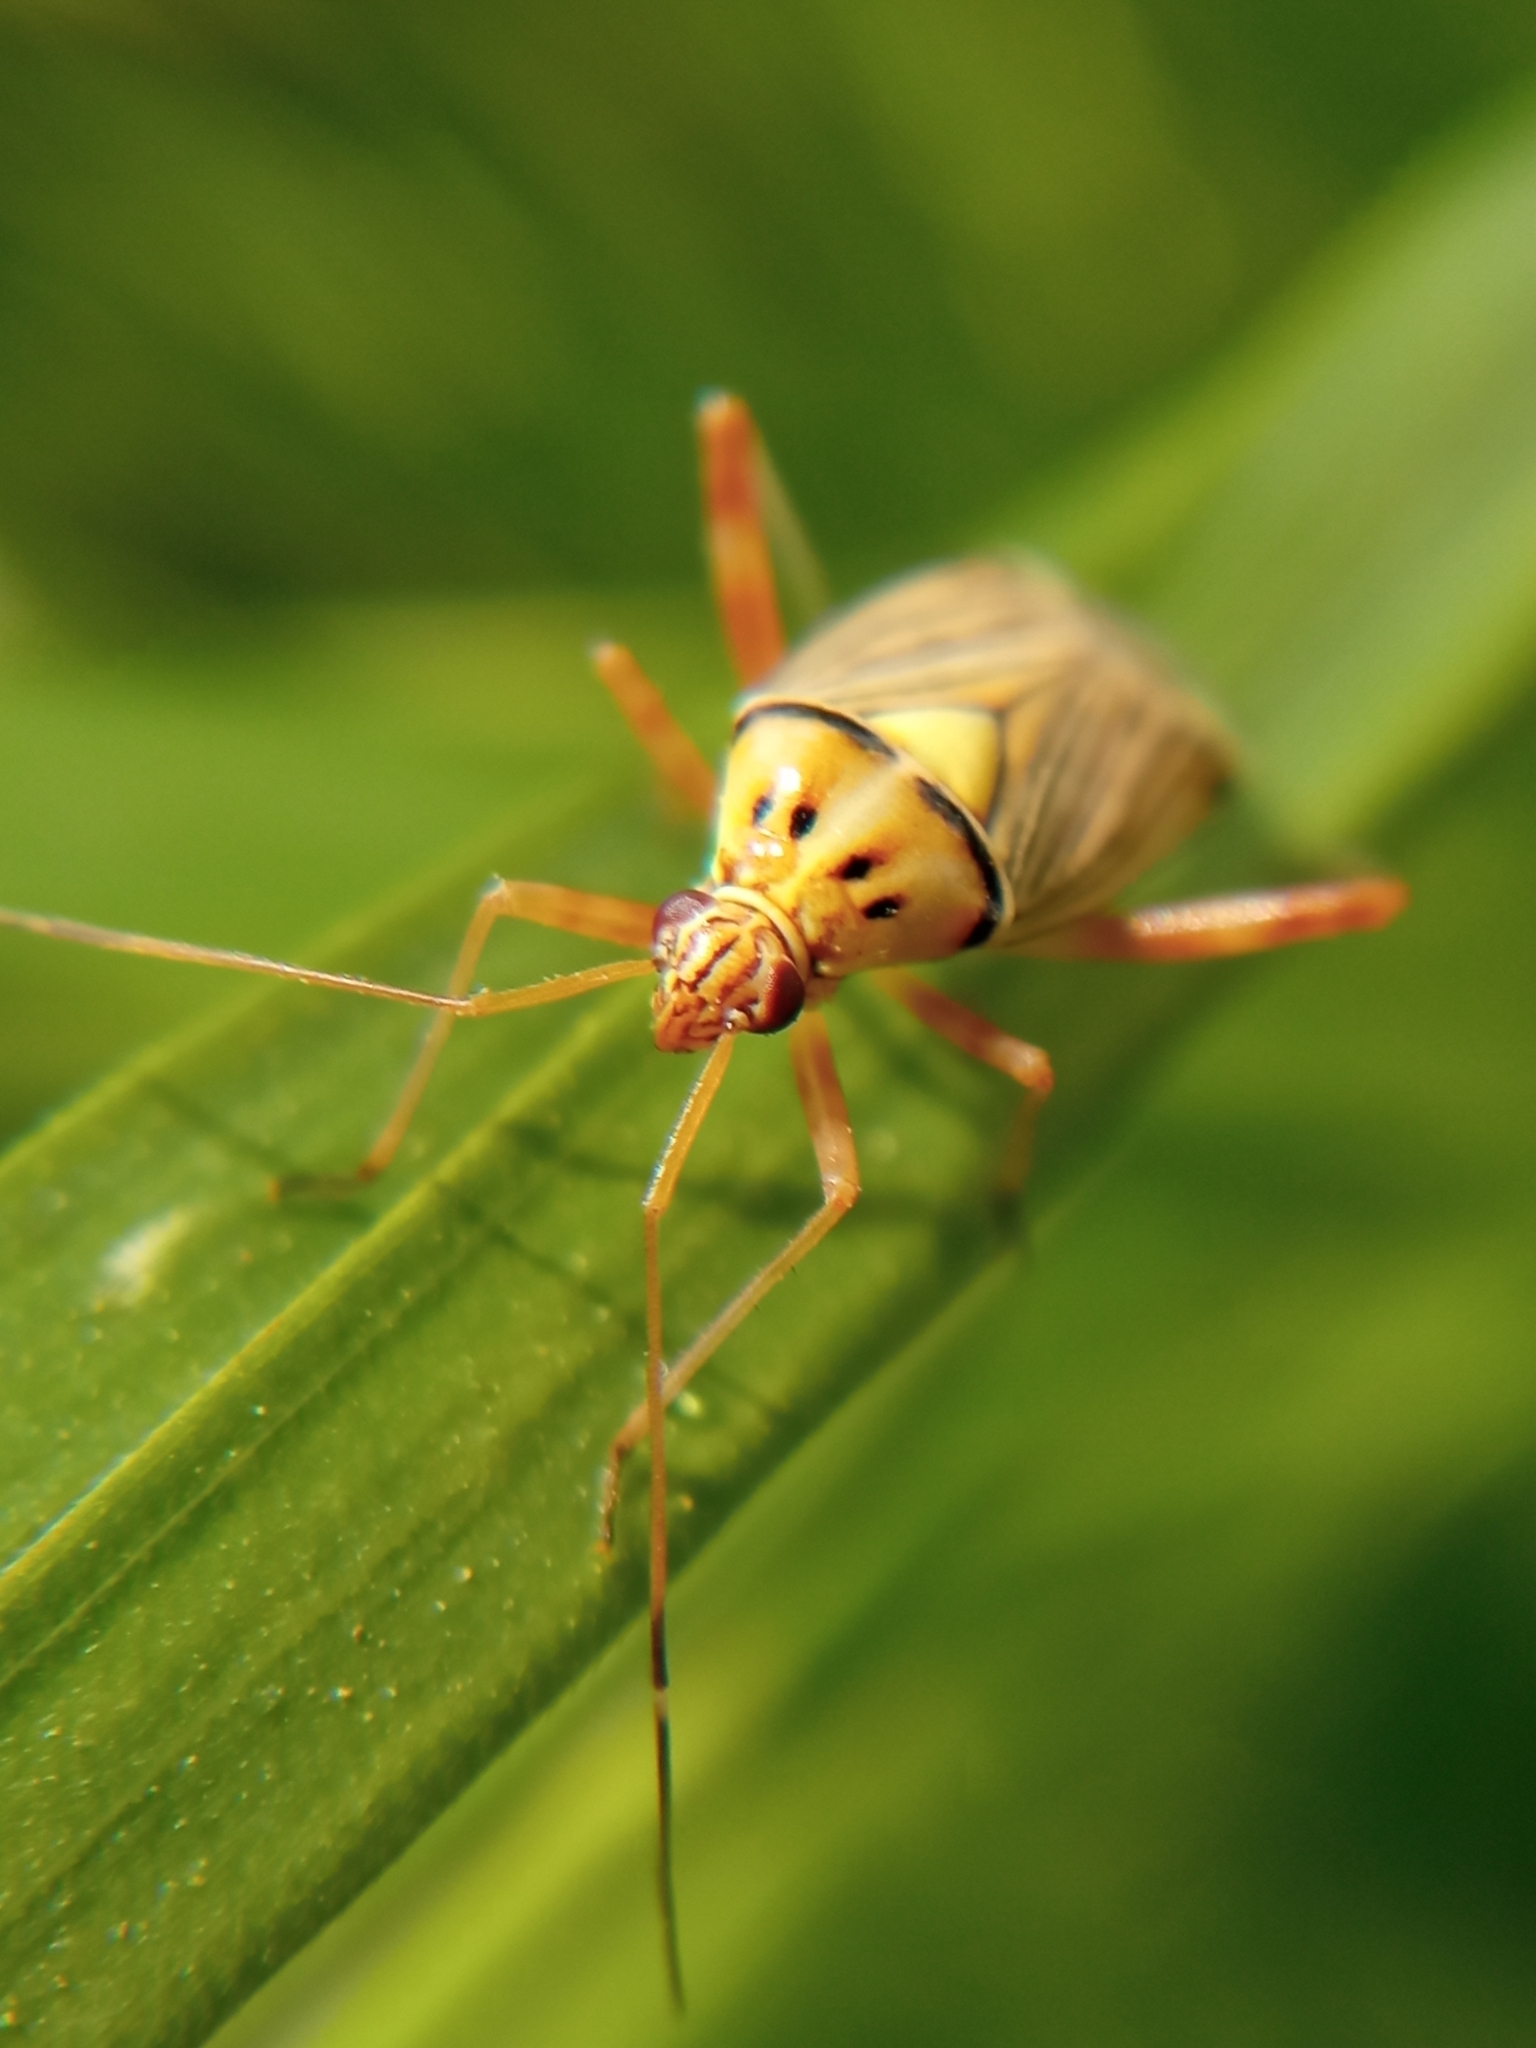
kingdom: Animalia
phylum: Arthropoda
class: Insecta
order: Hemiptera
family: Miridae
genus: Rhabdomiris
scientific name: Rhabdomiris striatellus
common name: Plant bug
